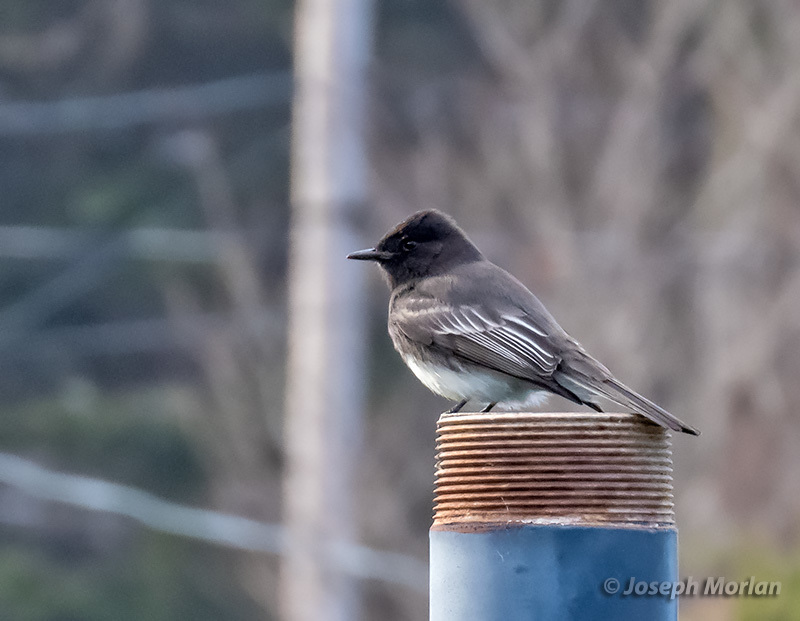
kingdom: Animalia
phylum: Chordata
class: Aves
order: Passeriformes
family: Tyrannidae
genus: Sayornis
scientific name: Sayornis nigricans
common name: Black phoebe
